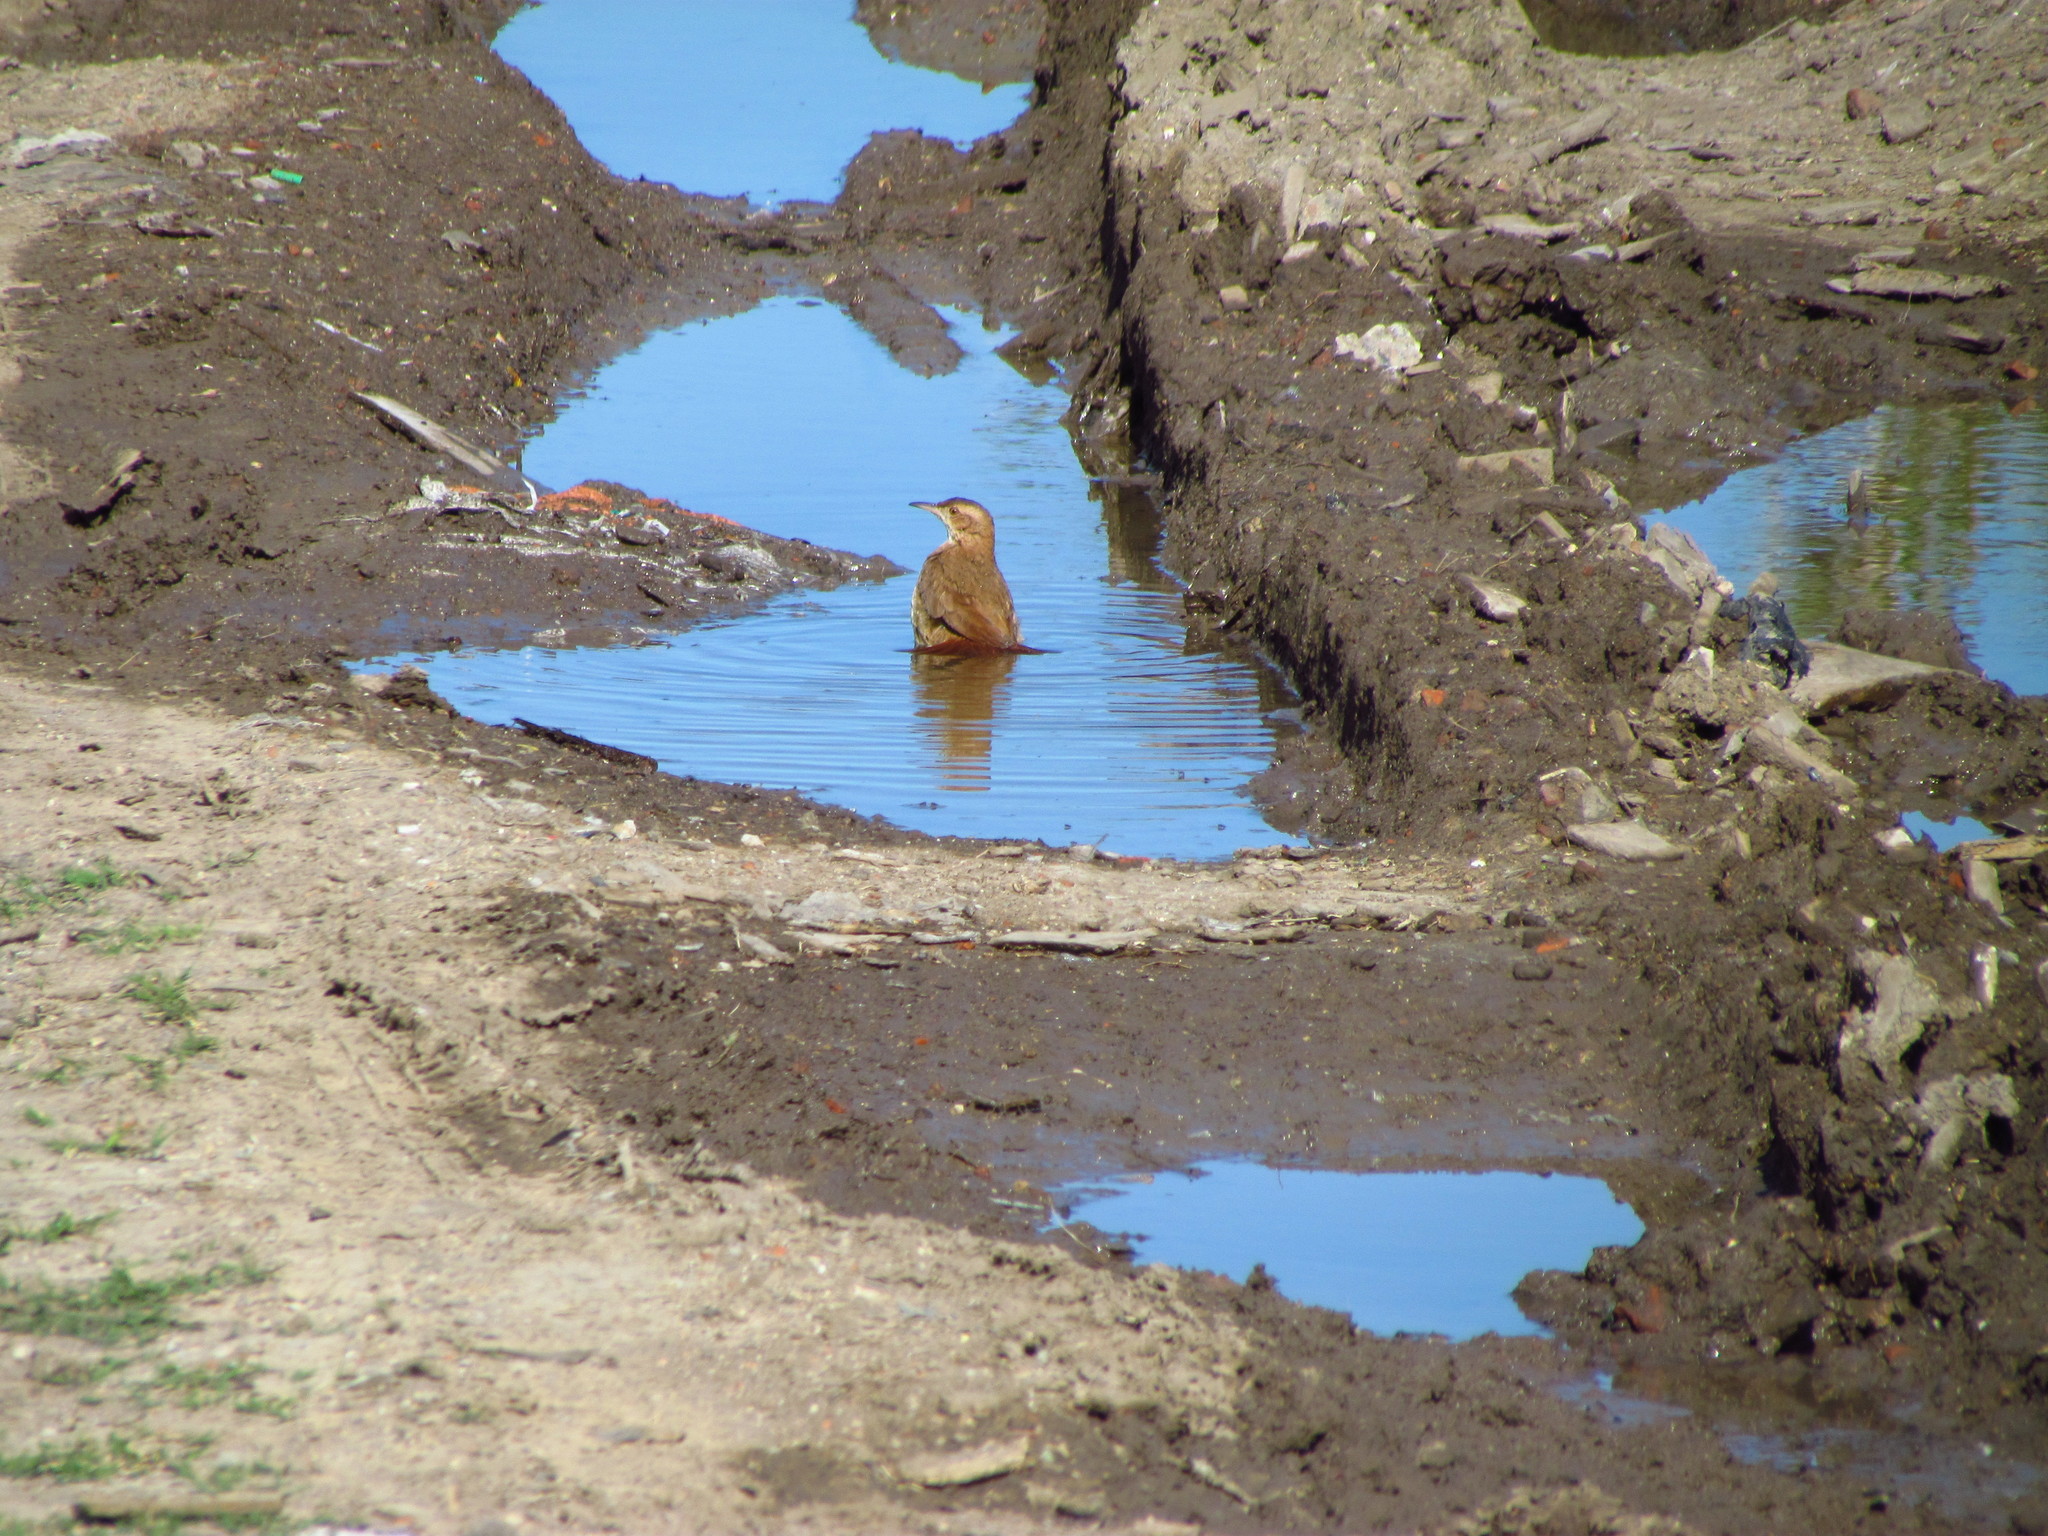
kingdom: Animalia
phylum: Chordata
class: Aves
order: Passeriformes
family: Furnariidae
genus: Furnarius
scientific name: Furnarius rufus
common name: Rufous hornero
